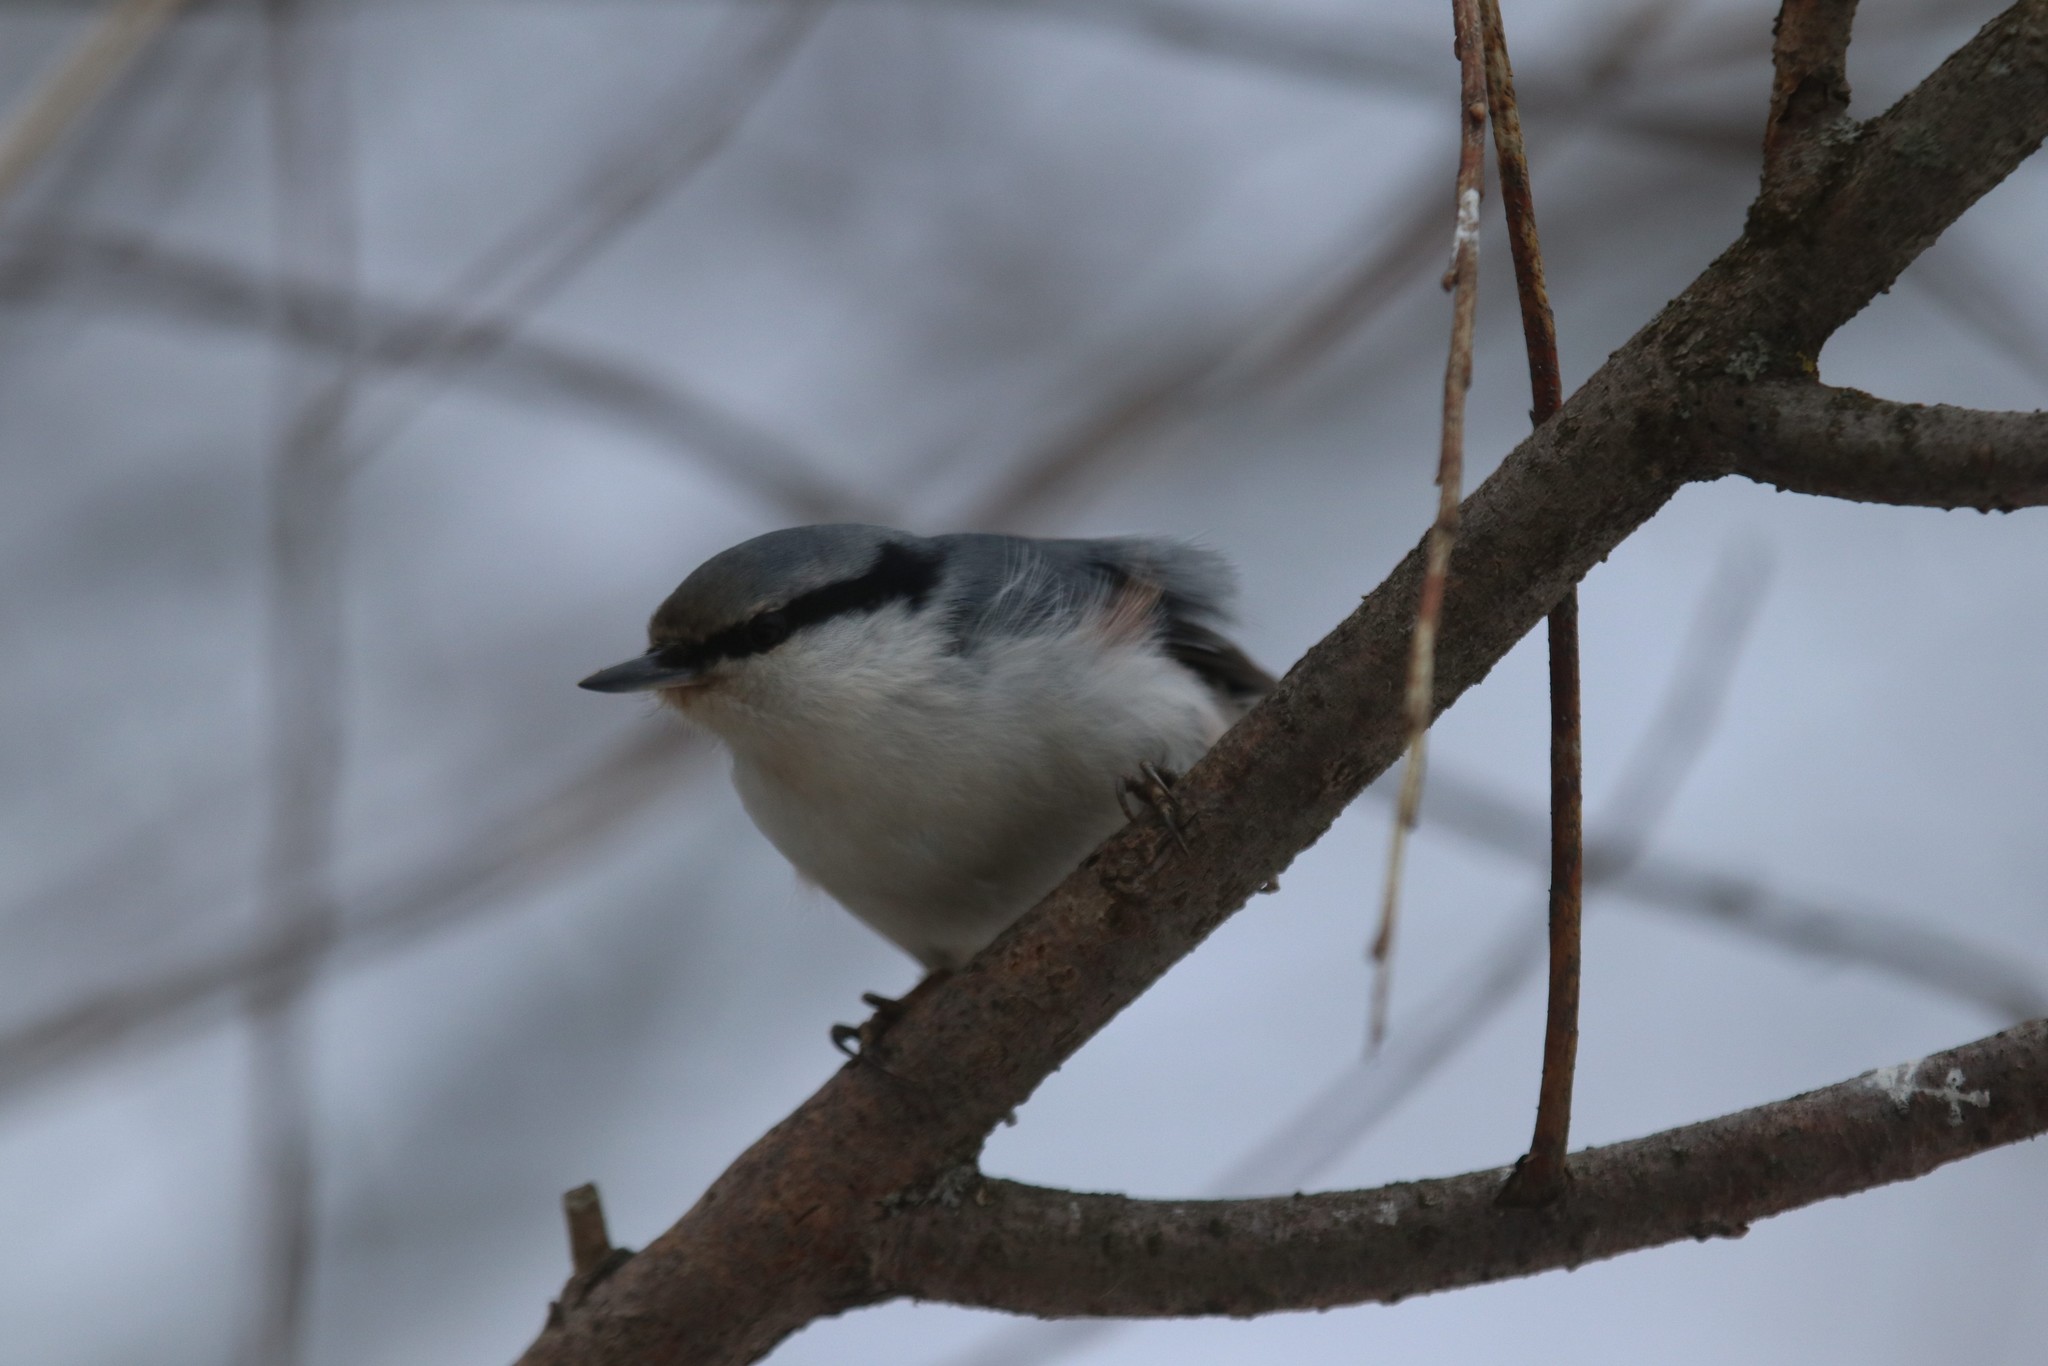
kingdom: Animalia
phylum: Chordata
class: Aves
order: Passeriformes
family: Sittidae
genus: Sitta
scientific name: Sitta europaea
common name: Eurasian nuthatch
